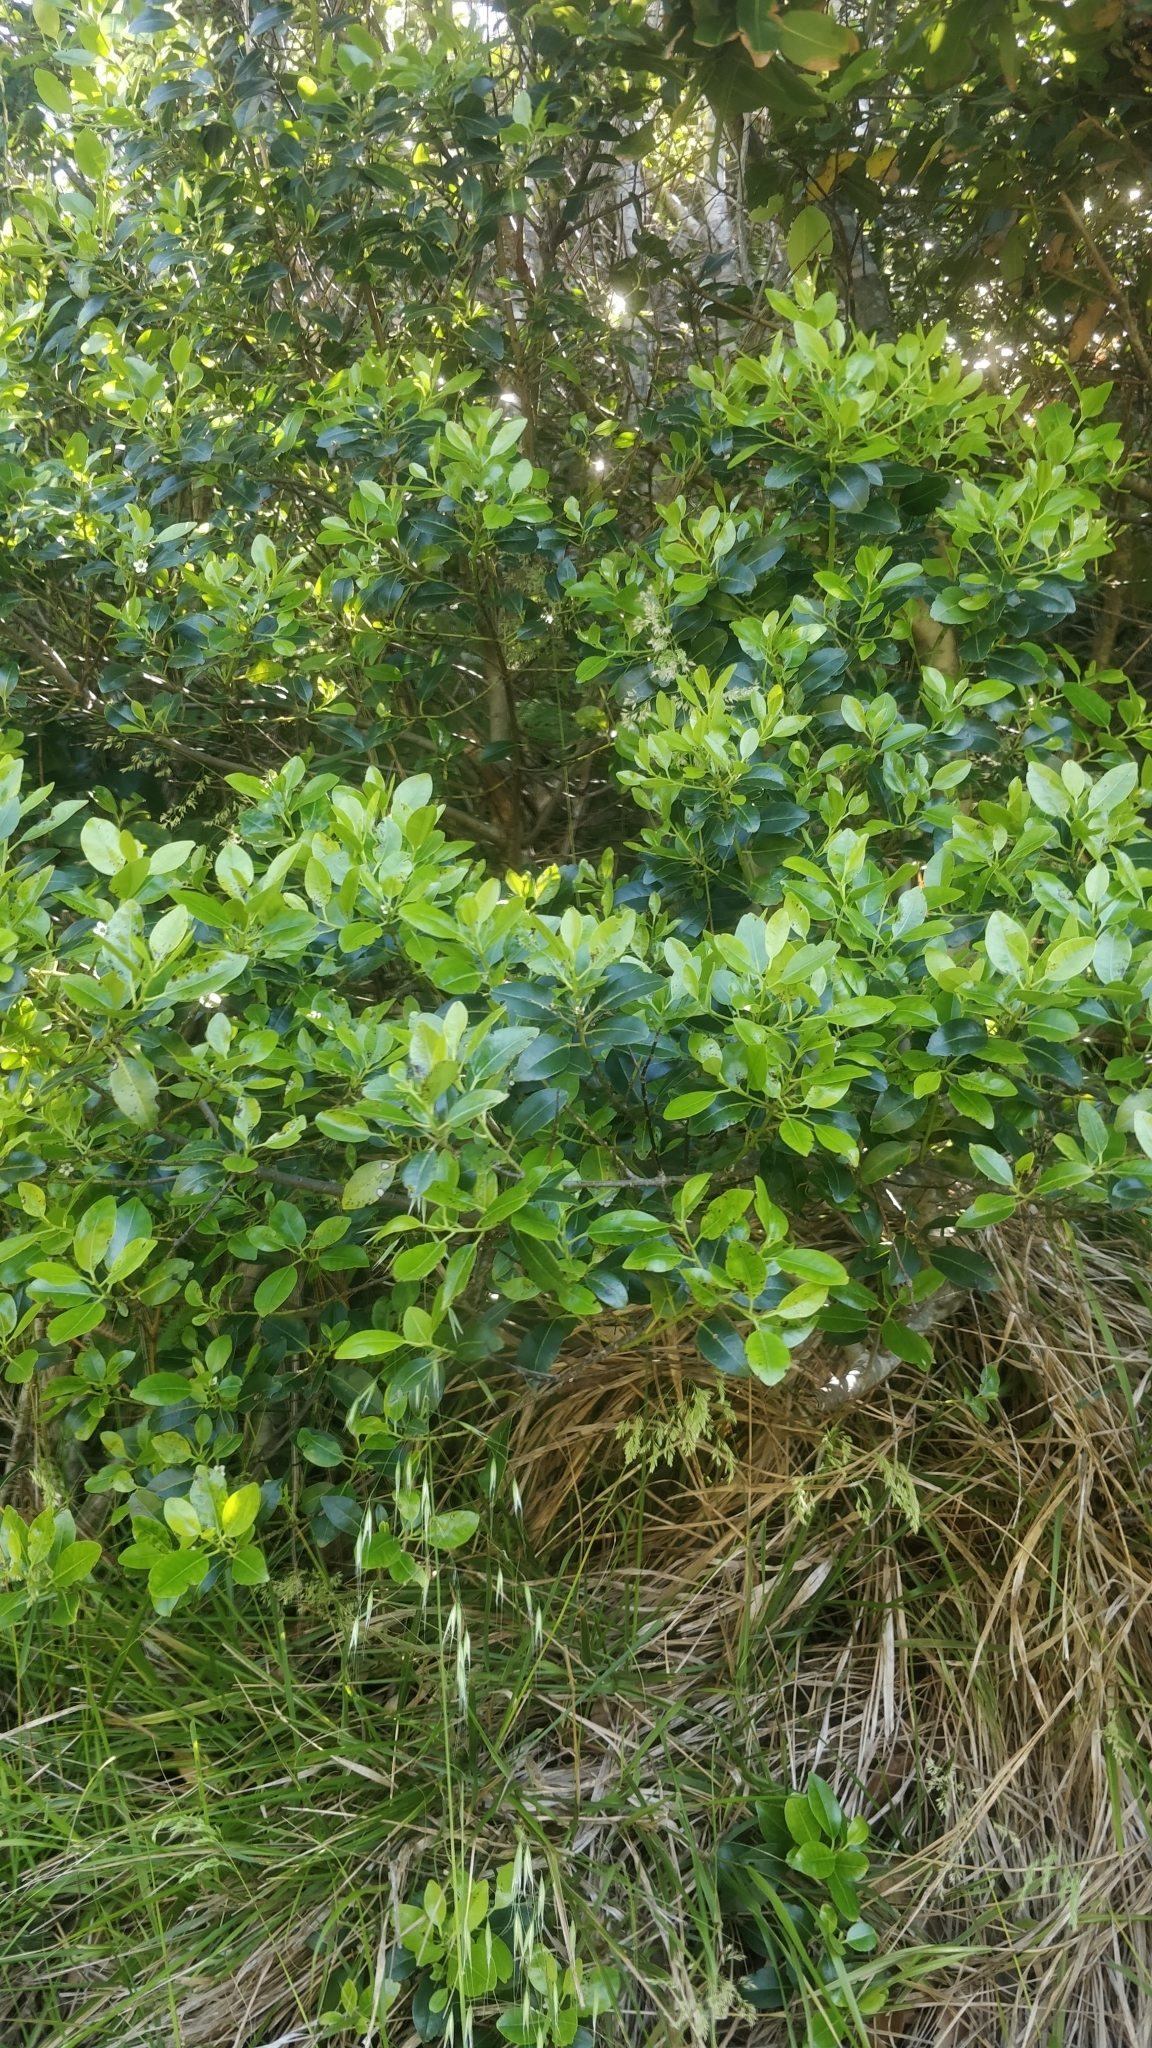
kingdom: Plantae
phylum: Tracheophyta
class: Magnoliopsida
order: Aquifoliales
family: Aquifoliaceae
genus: Ilex
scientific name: Ilex canariensis
